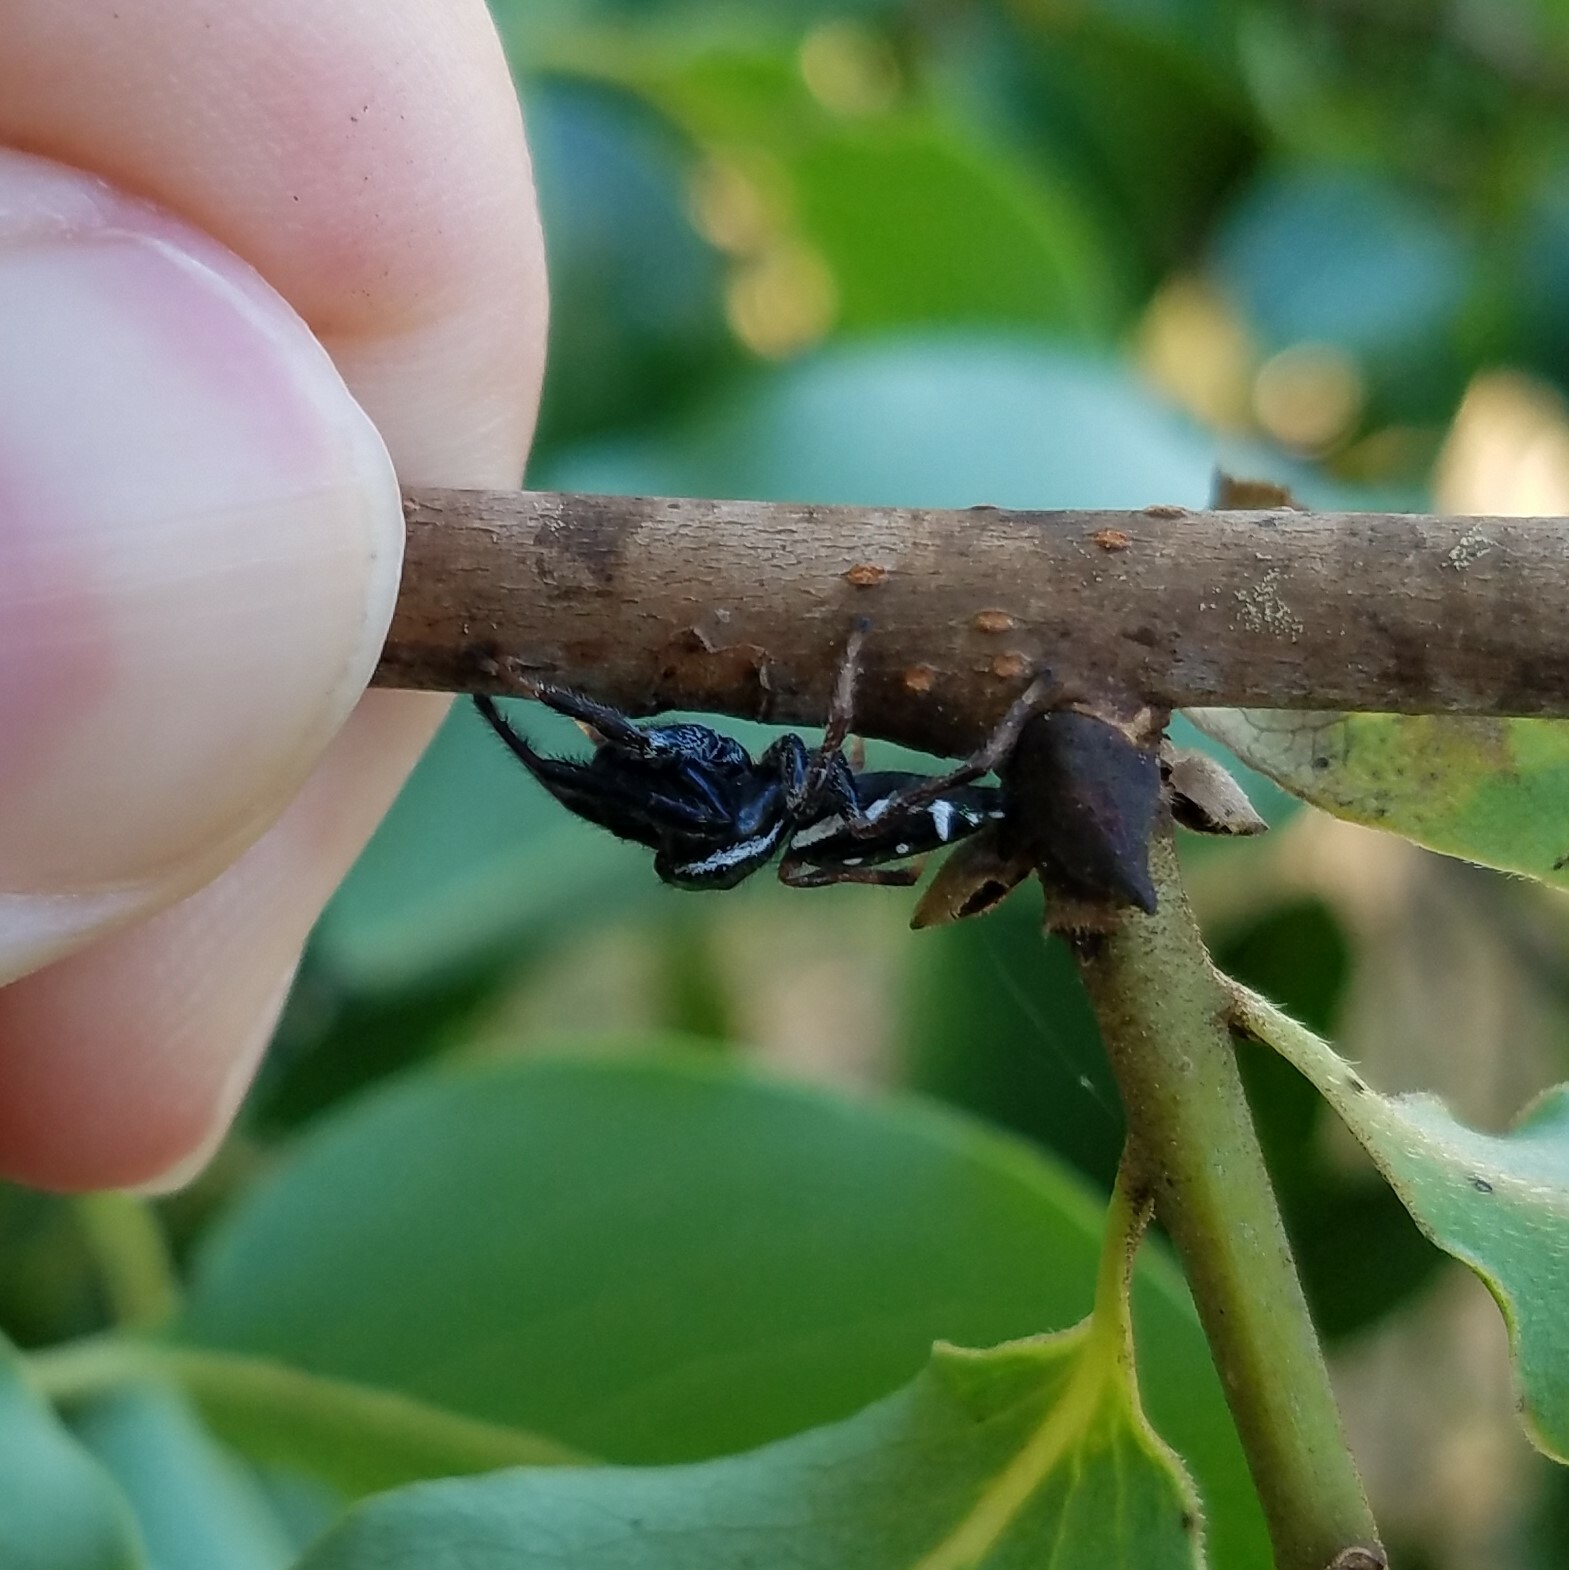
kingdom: Animalia
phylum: Arthropoda
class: Arachnida
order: Araneae
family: Salticidae
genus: Paraphidippus
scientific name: Paraphidippus aurantius
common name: Jumping spiders
